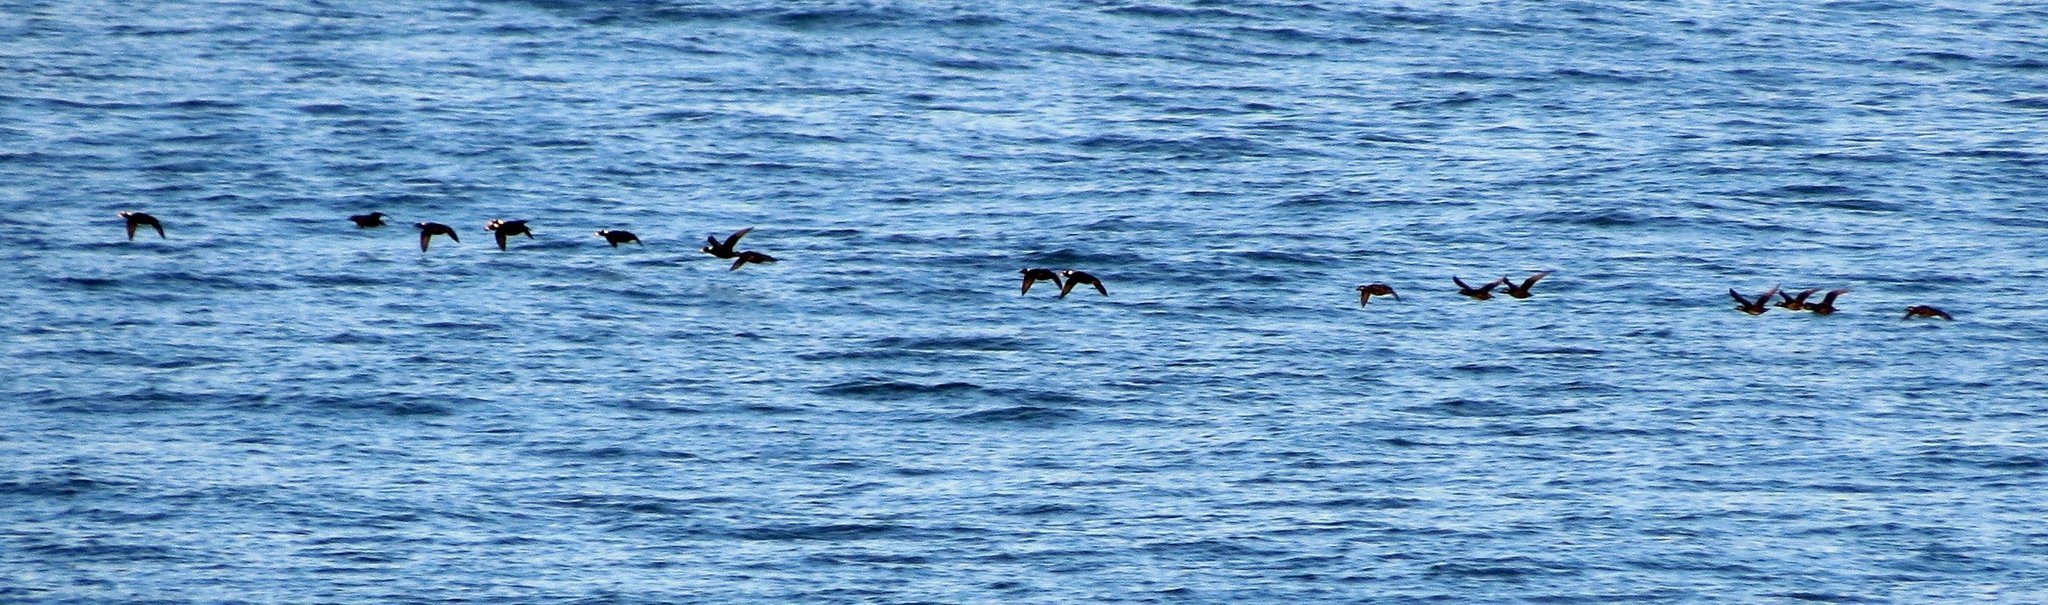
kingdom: Animalia
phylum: Chordata
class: Aves
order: Anseriformes
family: Anatidae
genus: Melanitta
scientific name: Melanitta perspicillata
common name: Surf scoter
